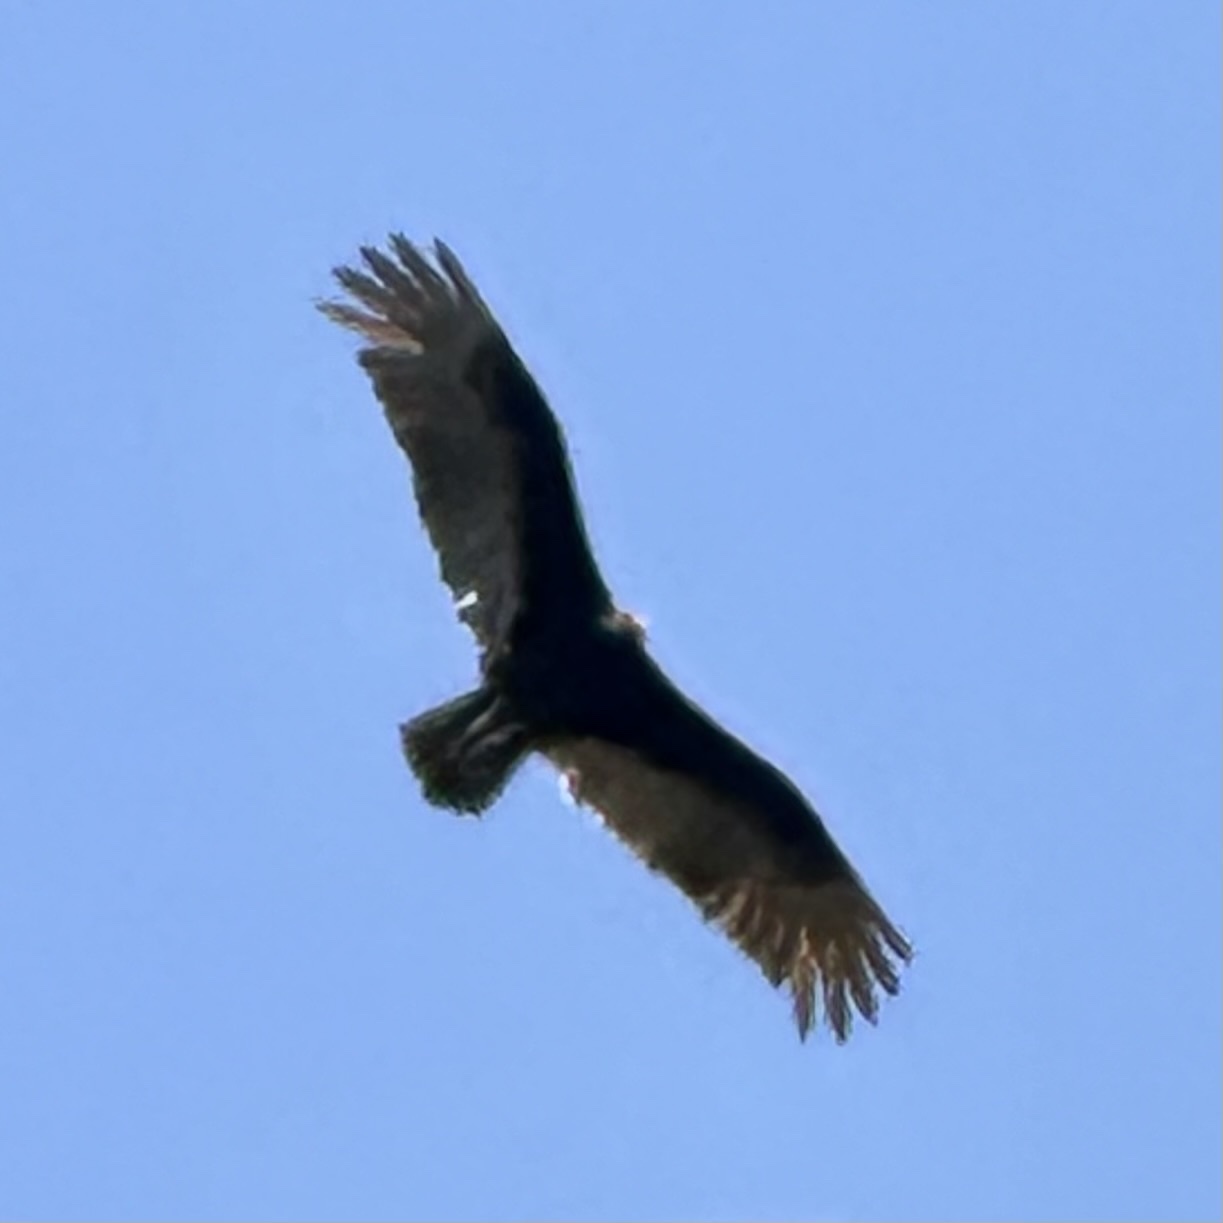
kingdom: Animalia
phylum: Chordata
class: Aves
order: Accipitriformes
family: Cathartidae
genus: Cathartes
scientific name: Cathartes aura
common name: Turkey vulture
